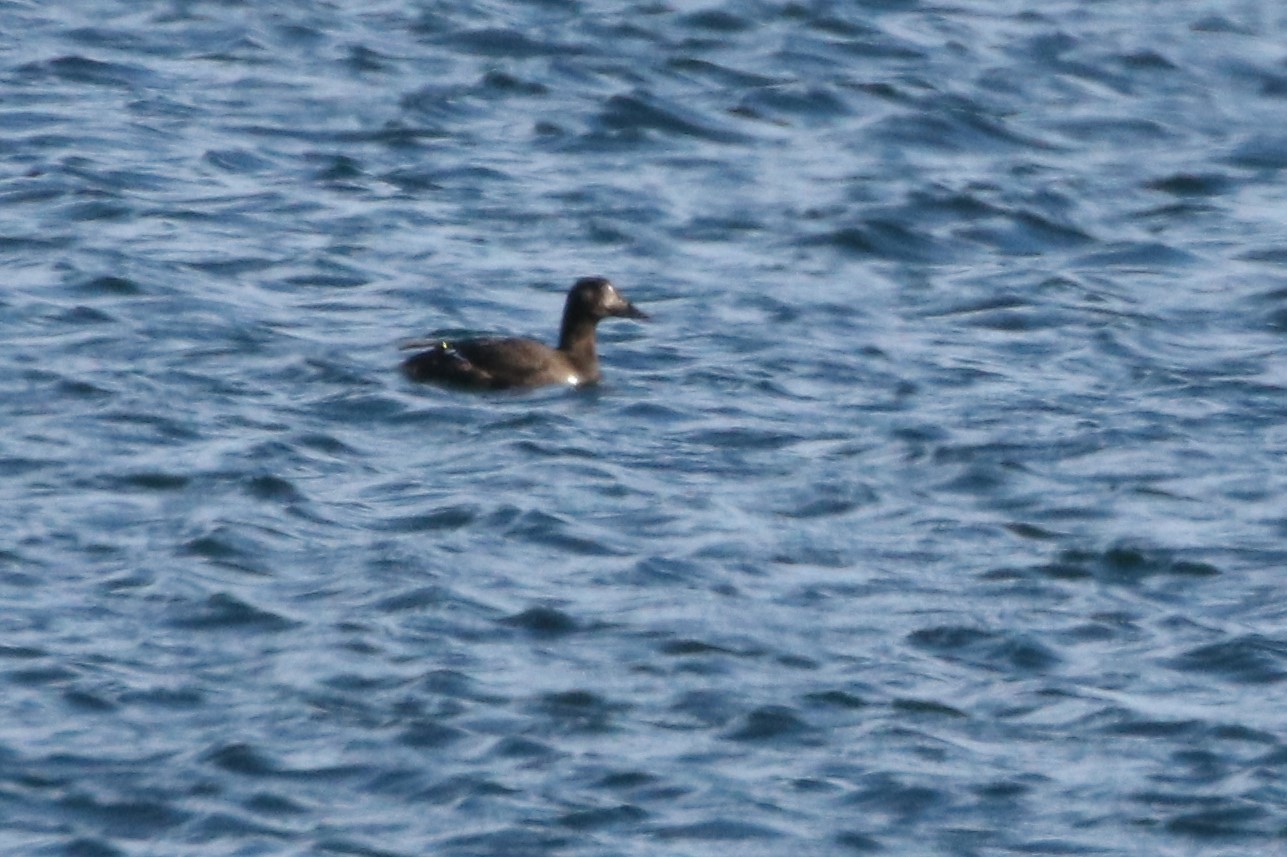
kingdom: Animalia
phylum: Chordata
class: Aves
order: Anseriformes
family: Anatidae
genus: Melanitta
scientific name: Melanitta deglandi
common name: White-winged scoter
